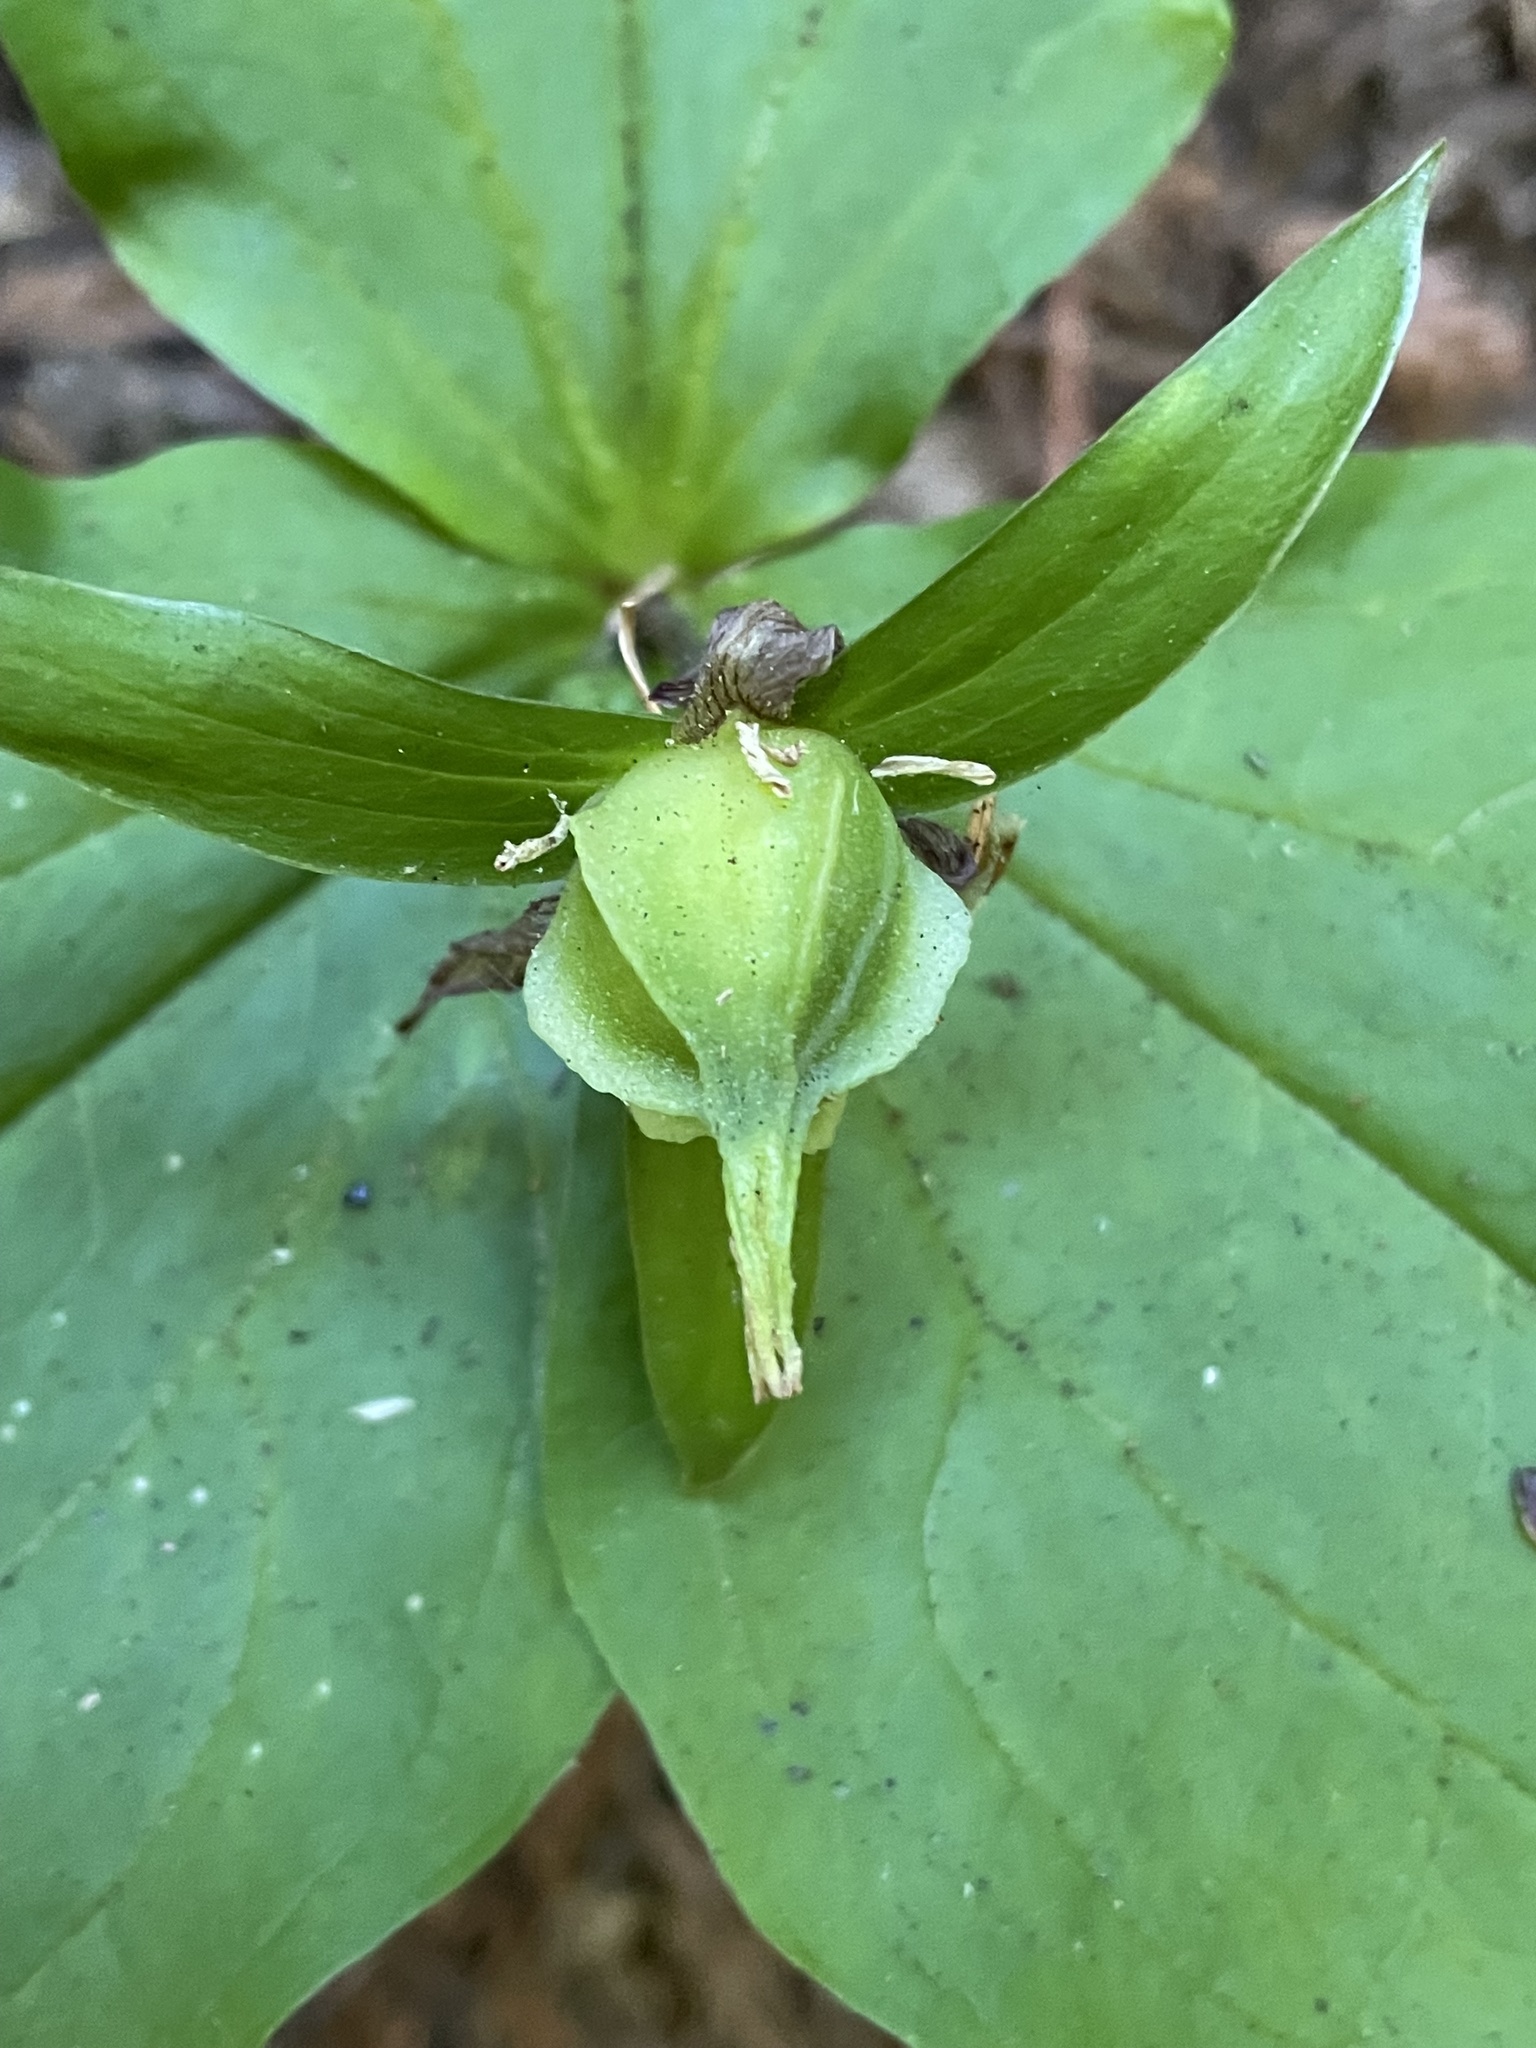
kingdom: Plantae
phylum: Tracheophyta
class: Liliopsida
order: Liliales
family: Melanthiaceae
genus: Trillium
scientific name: Trillium ovatum
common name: Pacific trillium
